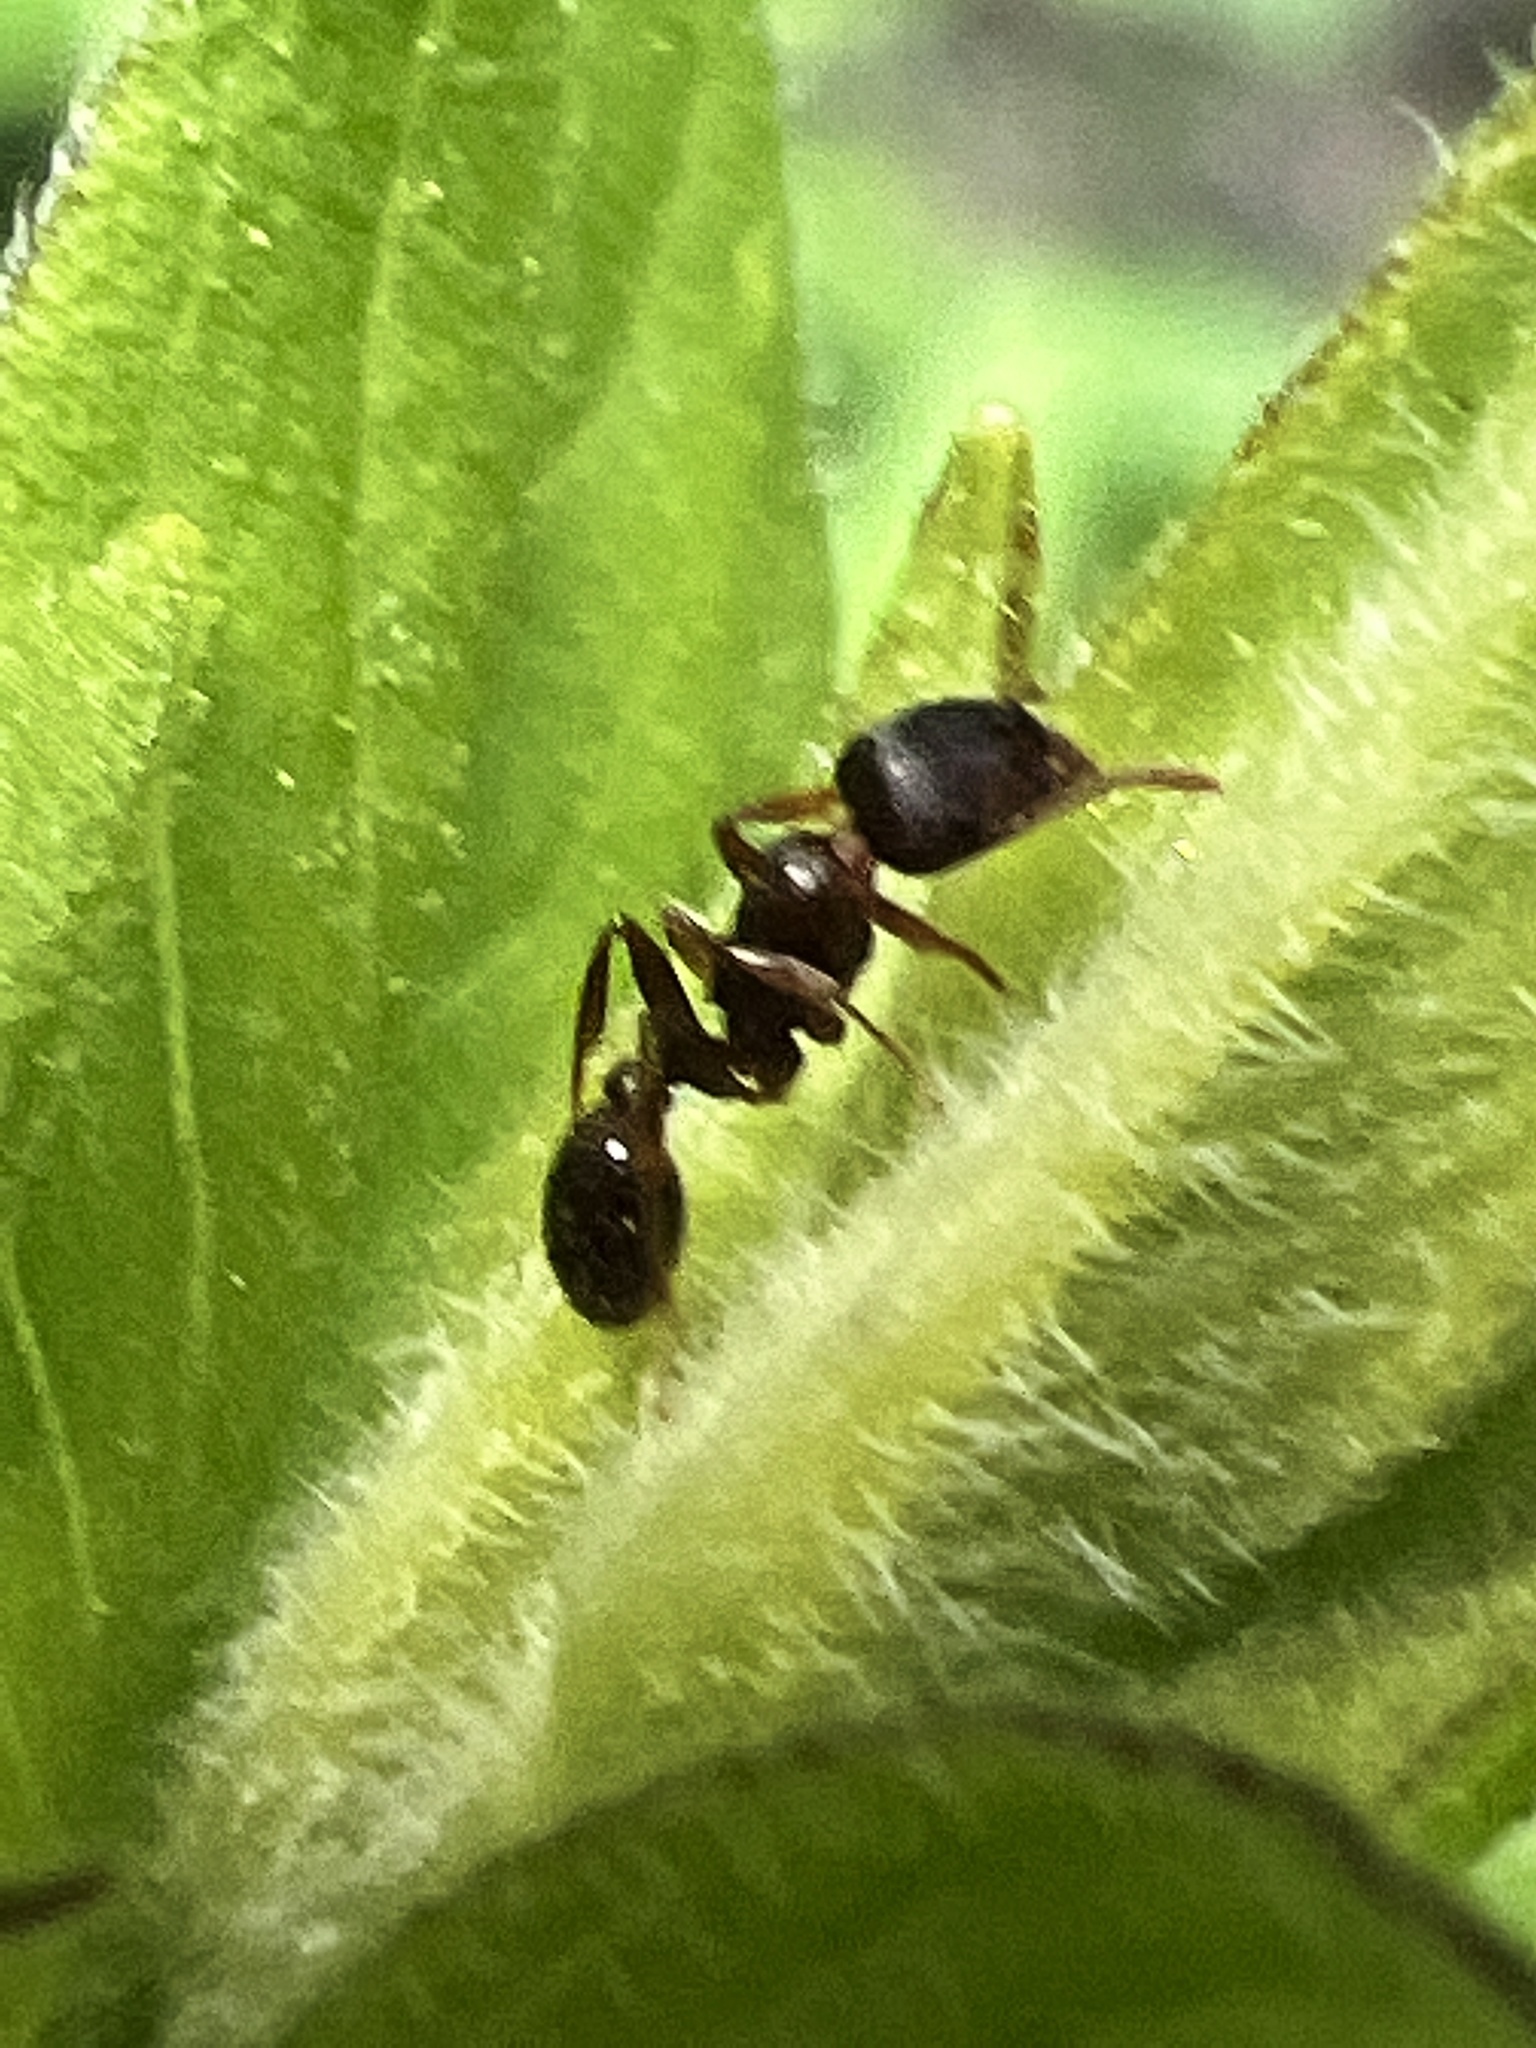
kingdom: Animalia
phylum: Arthropoda
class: Insecta
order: Hymenoptera
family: Formicidae
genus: Tetramorium
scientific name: Tetramorium immigrans
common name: Pavement ant
